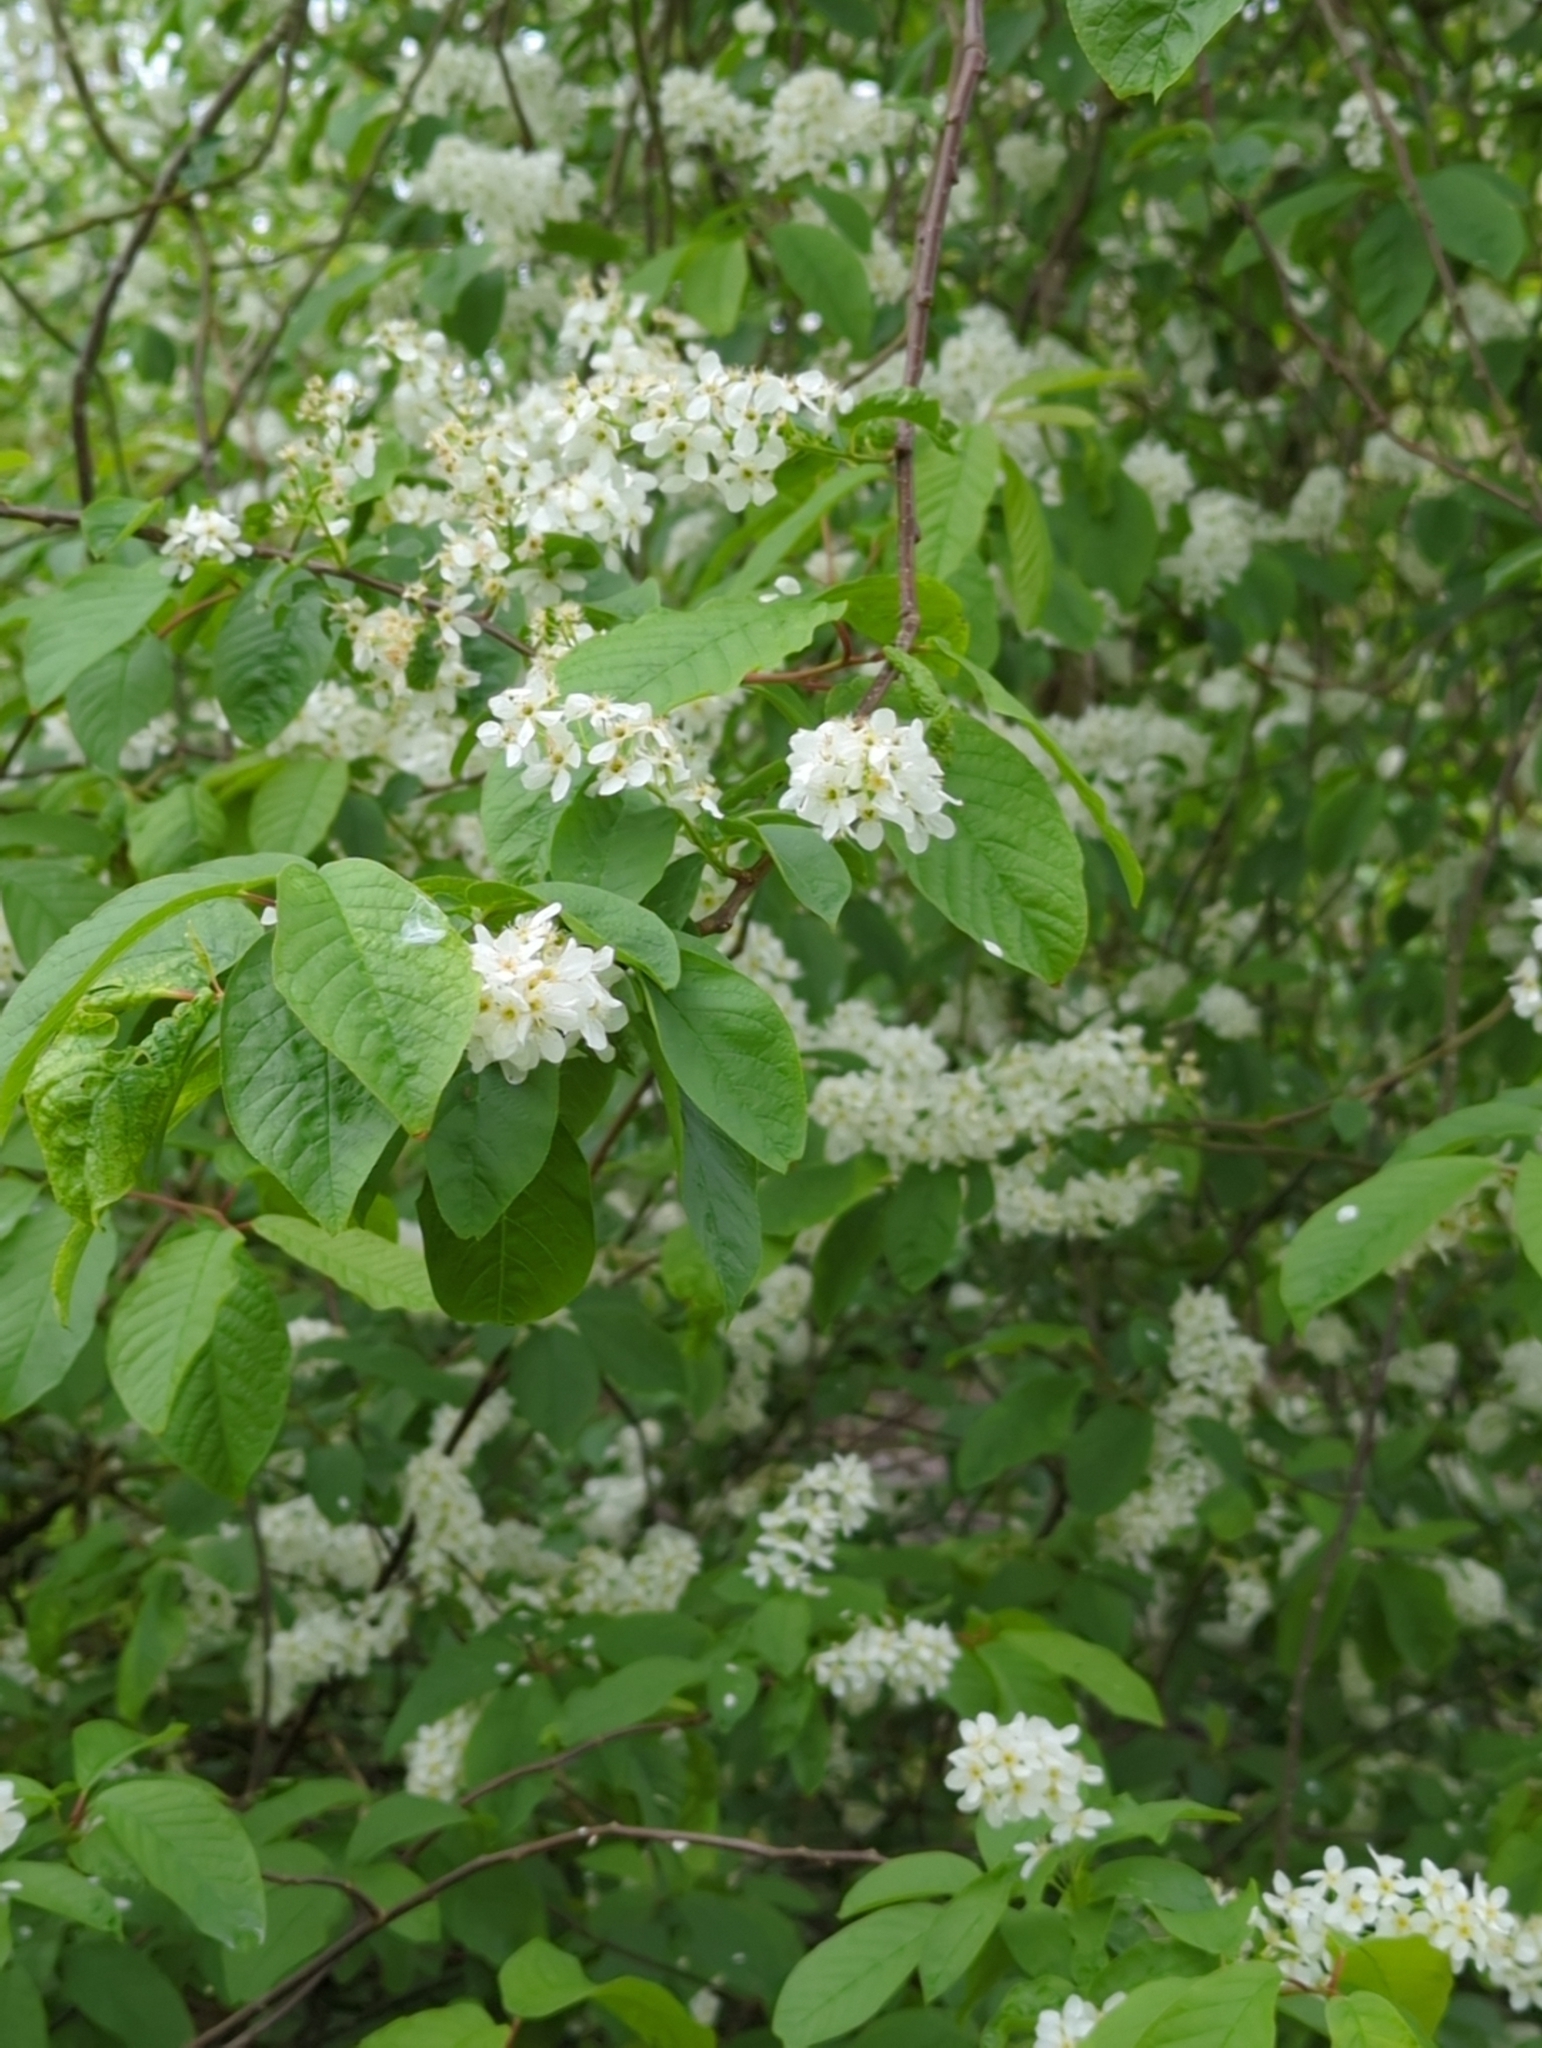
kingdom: Plantae
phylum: Tracheophyta
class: Magnoliopsida
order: Rosales
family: Rosaceae
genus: Prunus
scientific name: Prunus padus
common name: Bird cherry
